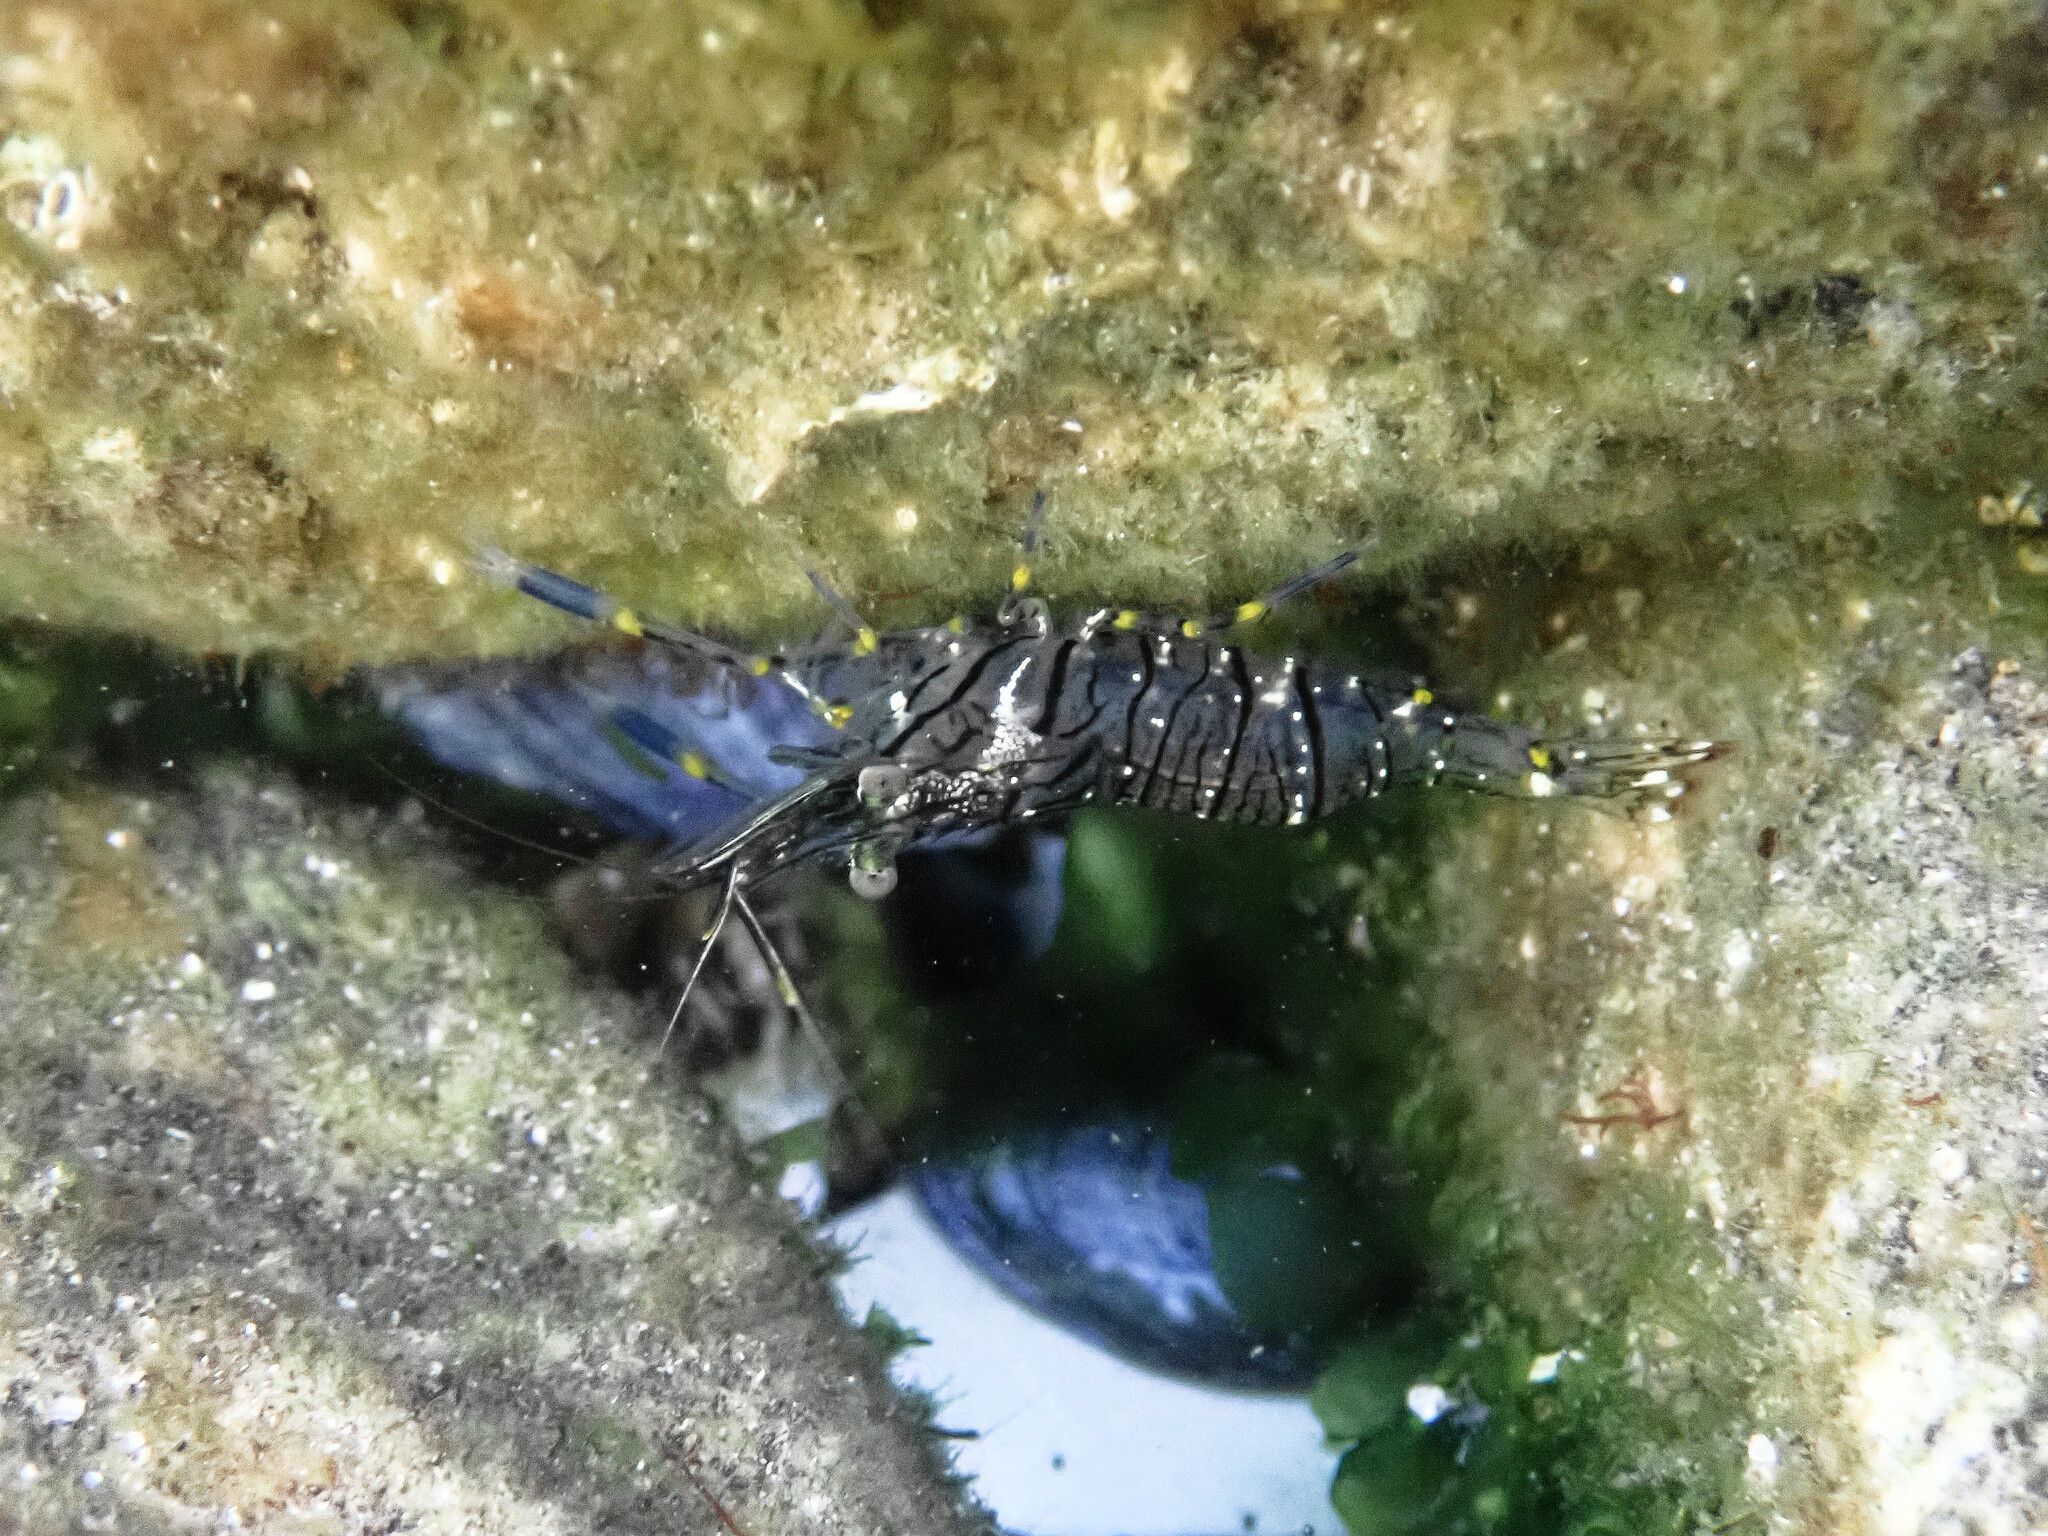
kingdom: Animalia
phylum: Arthropoda
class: Malacostraca
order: Decapoda
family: Palaemonidae
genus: Palaemon
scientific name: Palaemon elegans
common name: Grass prawm
